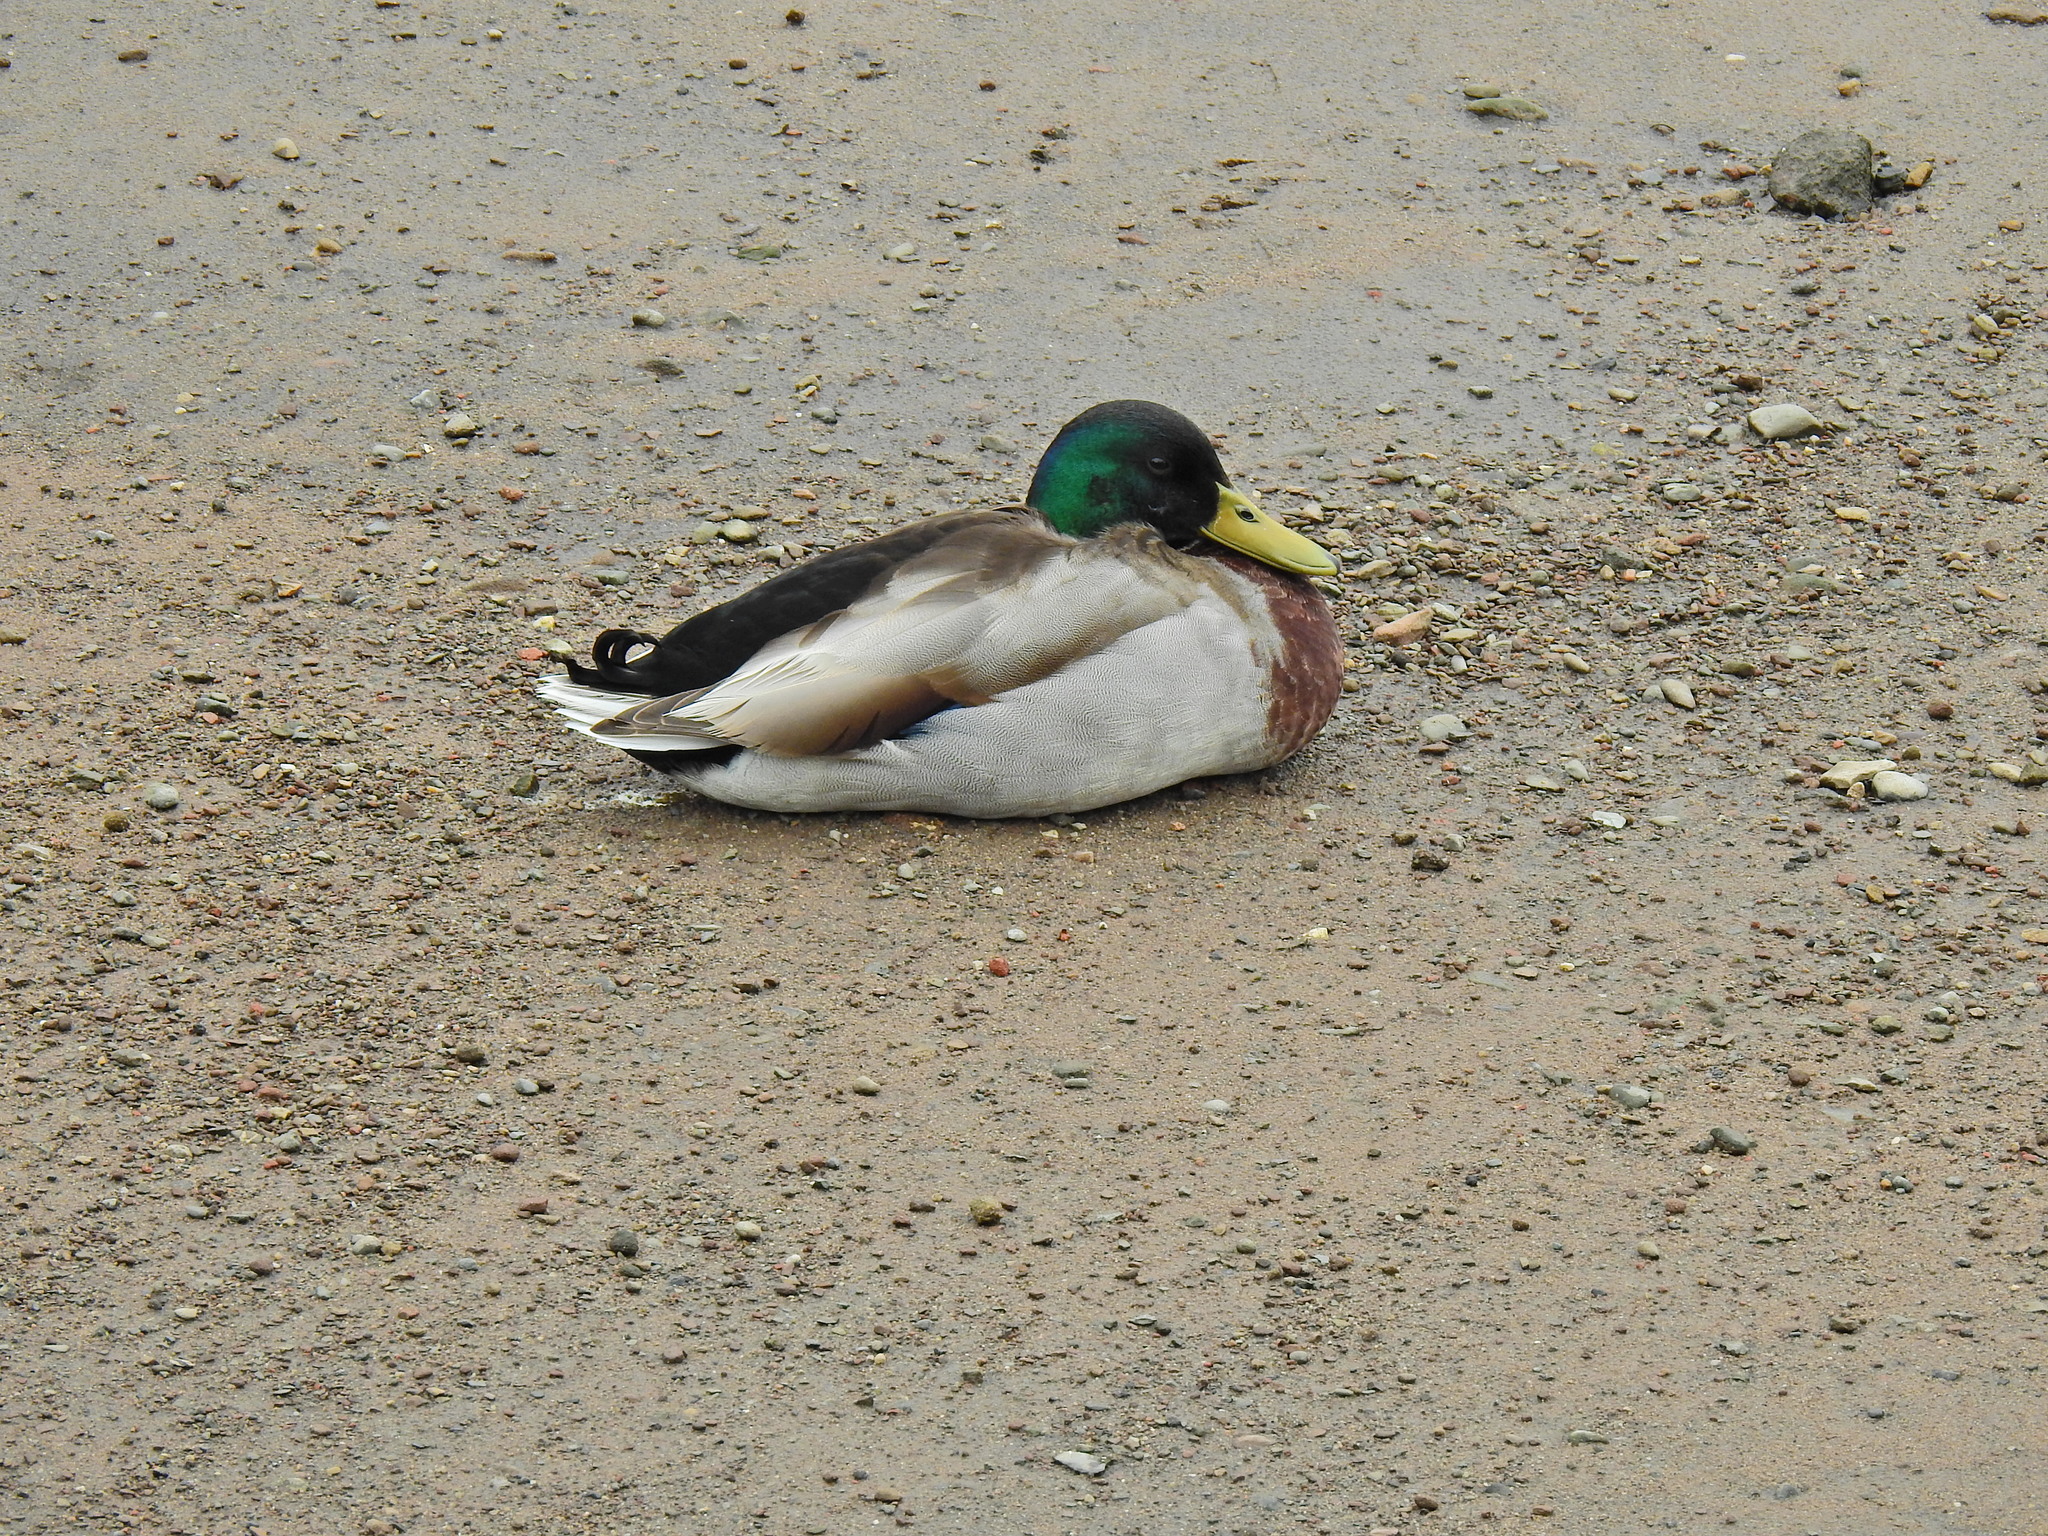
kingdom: Animalia
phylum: Chordata
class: Aves
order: Anseriformes
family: Anatidae
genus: Anas
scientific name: Anas platyrhynchos
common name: Mallard
